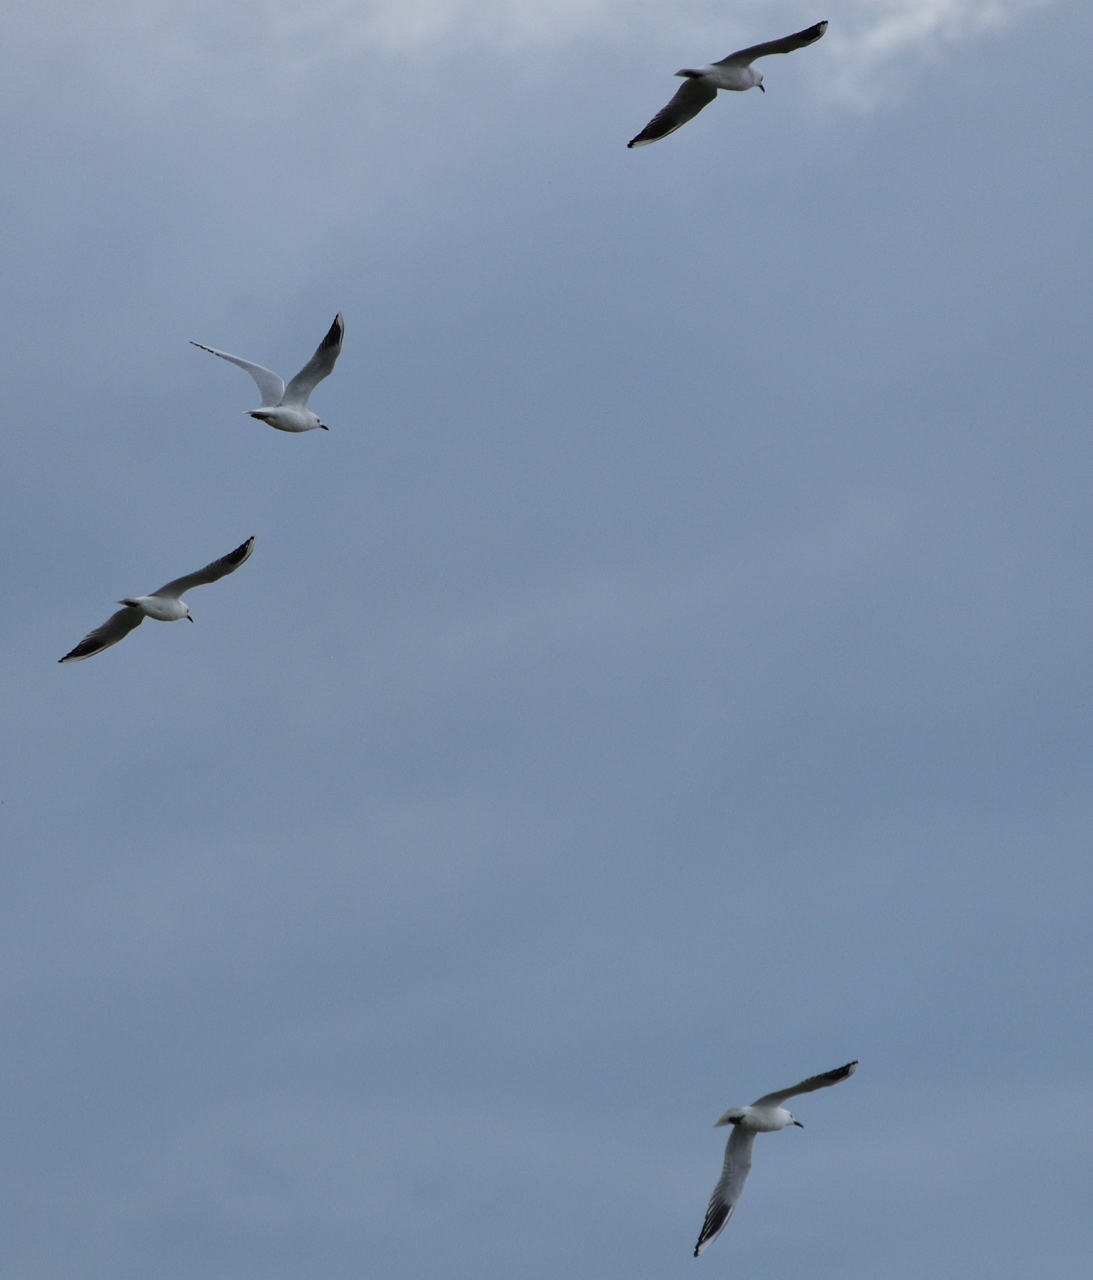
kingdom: Animalia
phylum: Chordata
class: Aves
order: Charadriiformes
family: Laridae
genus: Chroicocephalus
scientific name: Chroicocephalus bulleri
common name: Black-billed gull
